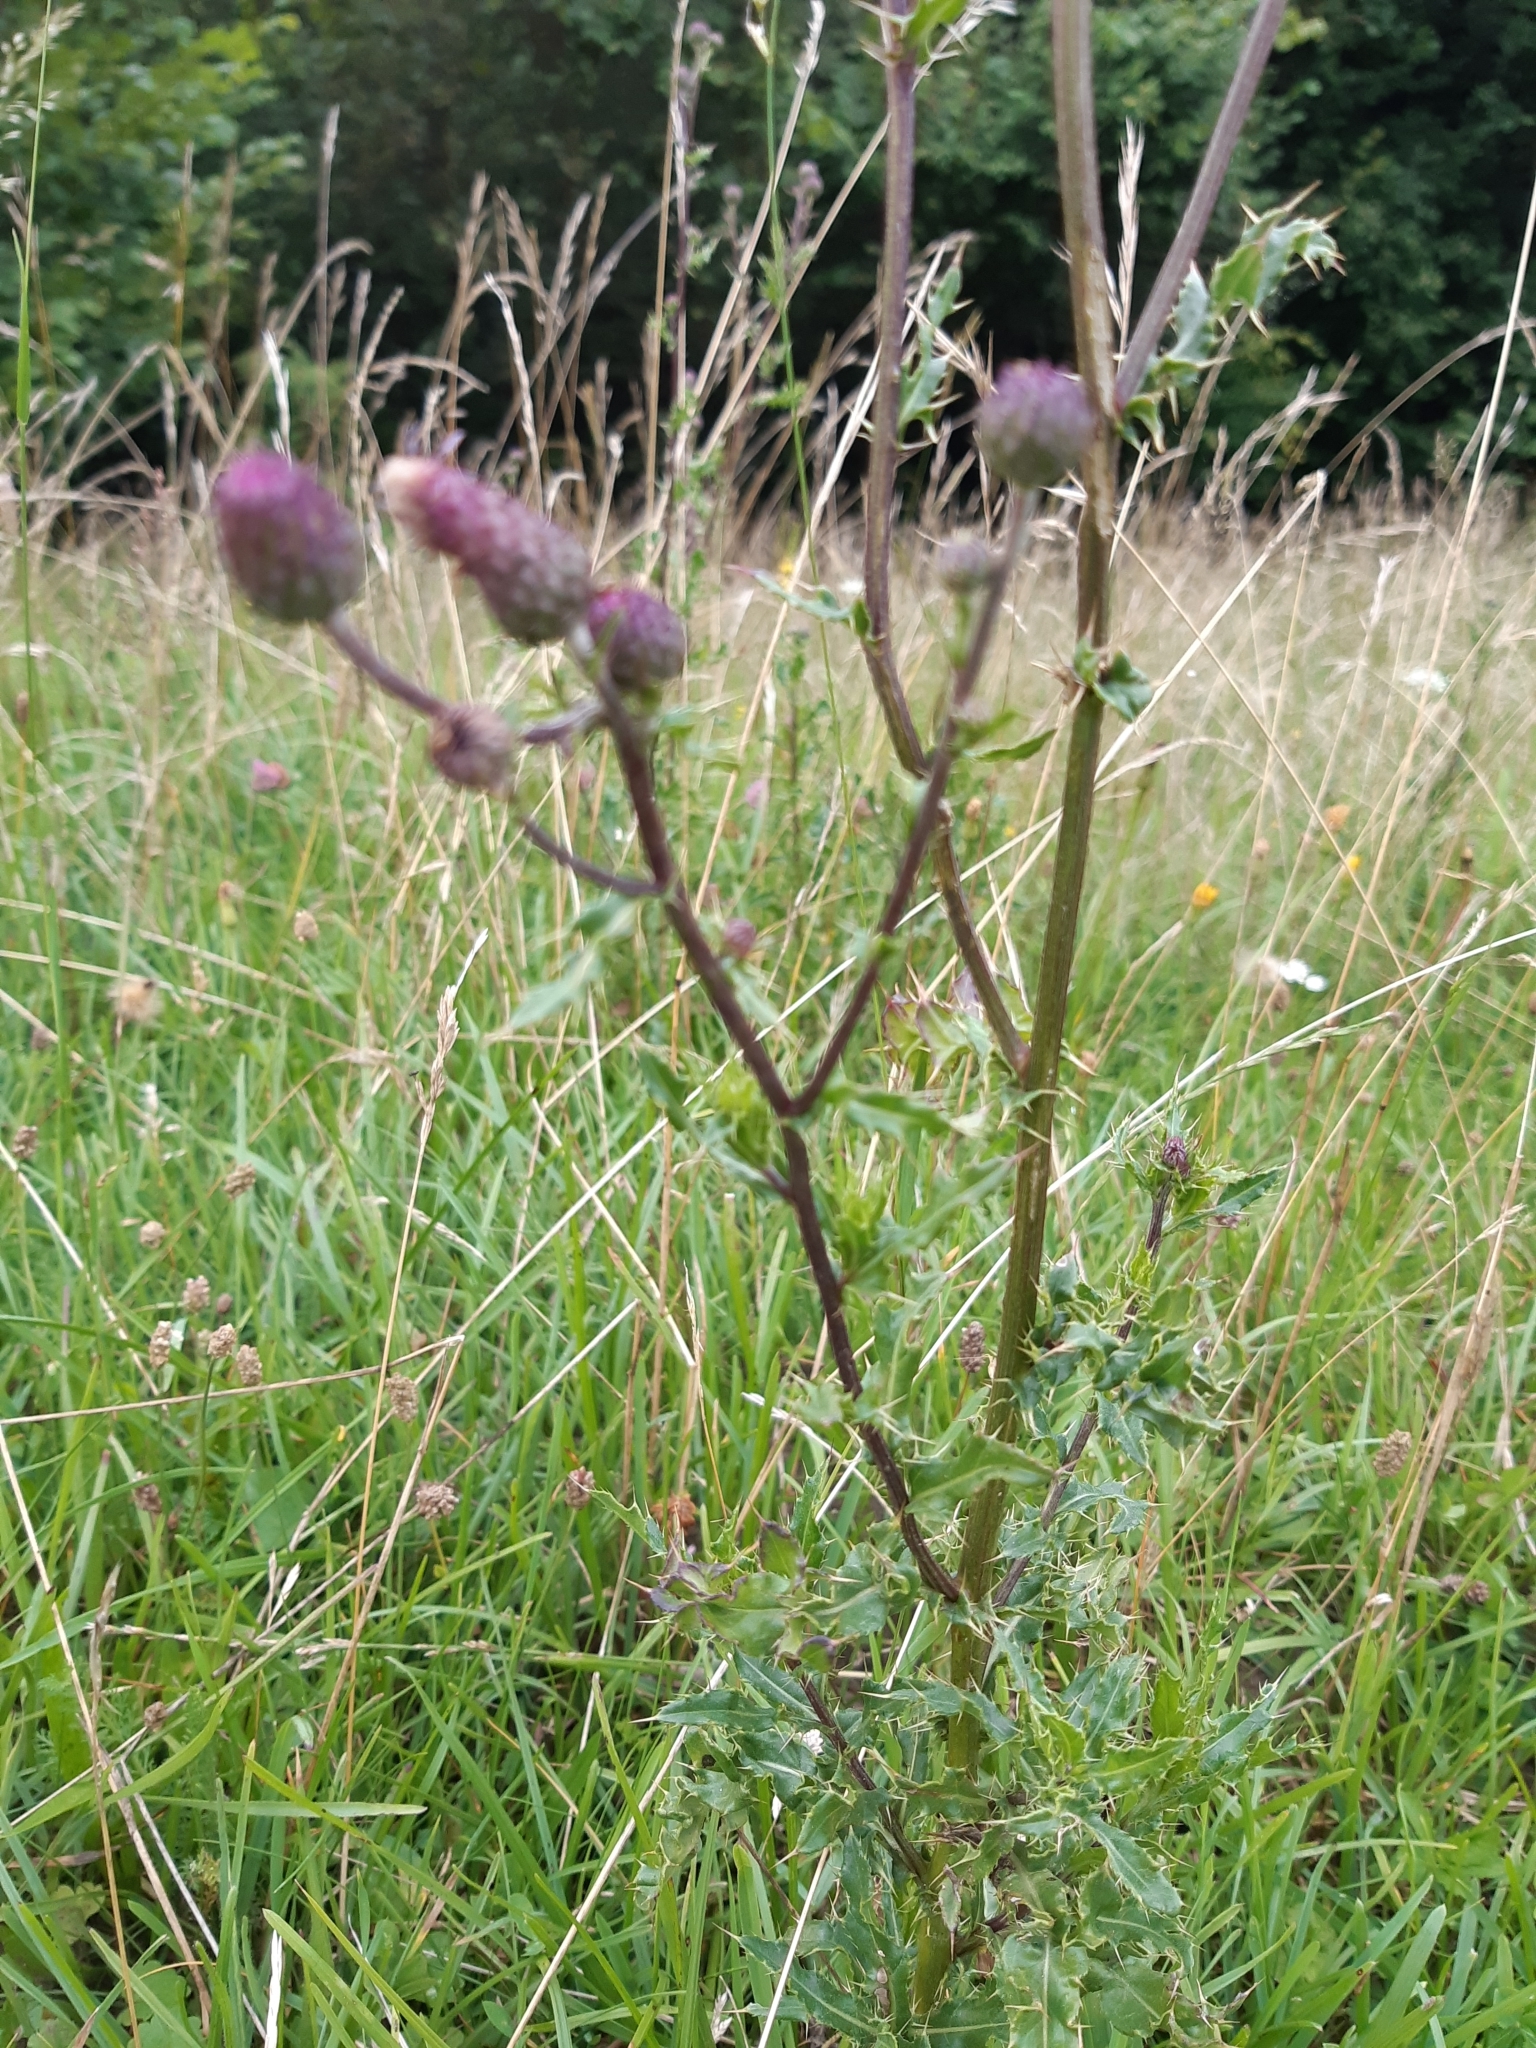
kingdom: Plantae
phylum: Tracheophyta
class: Magnoliopsida
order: Asterales
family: Asteraceae
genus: Cirsium
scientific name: Cirsium arvense
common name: Creeping thistle
